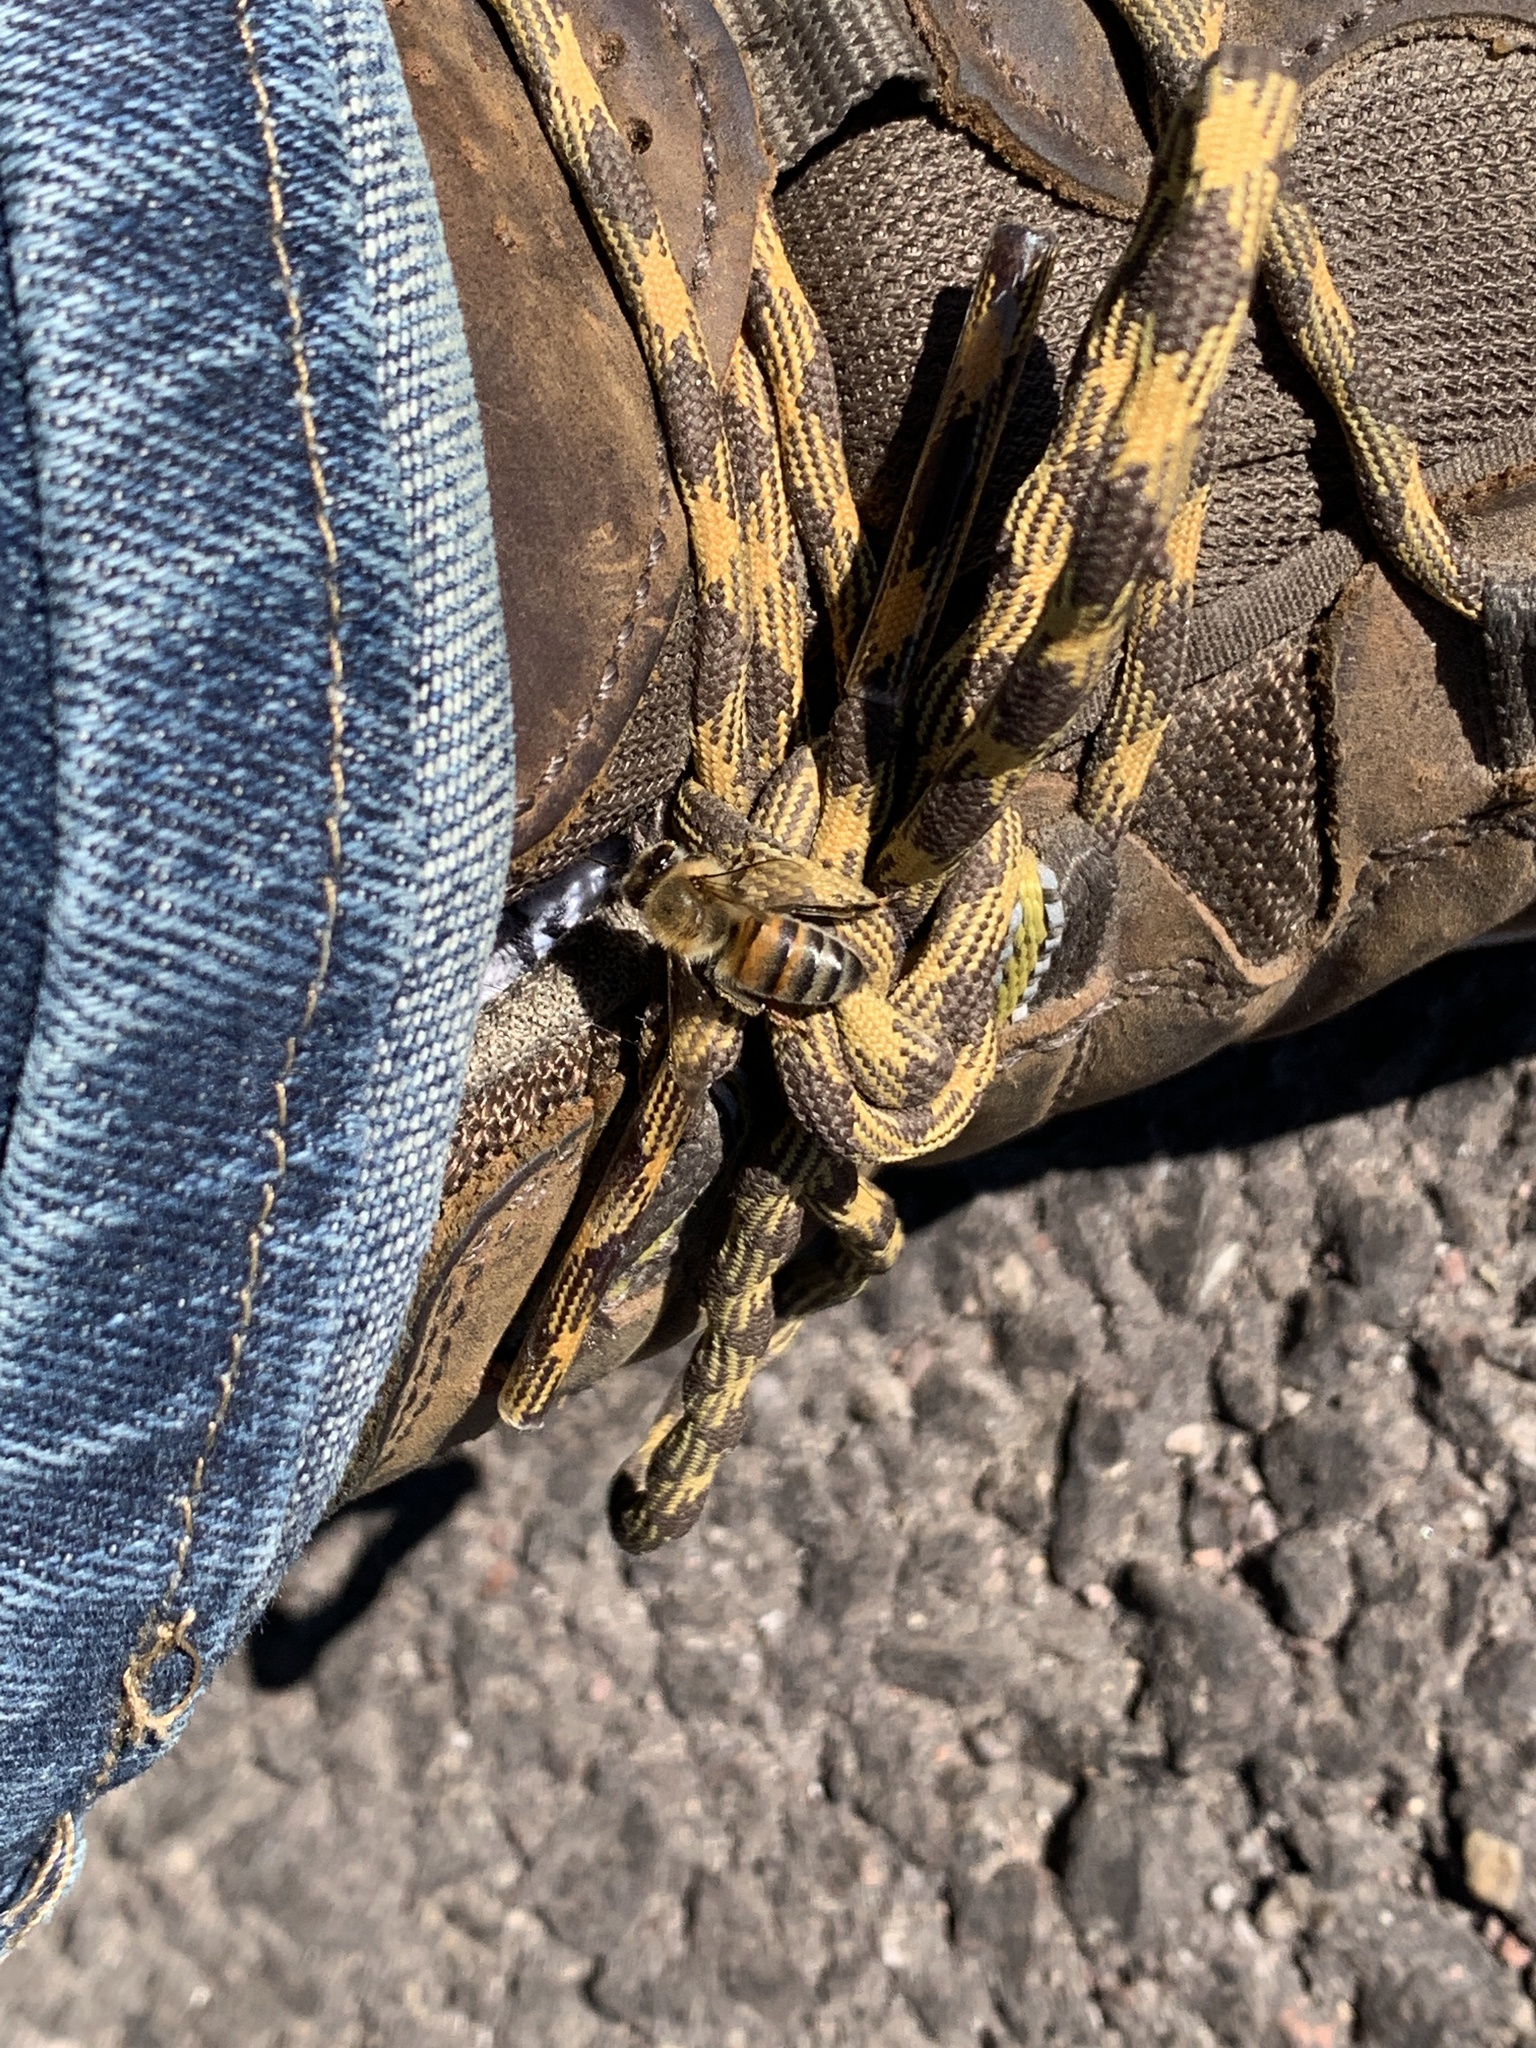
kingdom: Animalia
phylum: Arthropoda
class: Insecta
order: Hymenoptera
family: Apidae
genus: Apis
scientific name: Apis mellifera
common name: Honey bee
